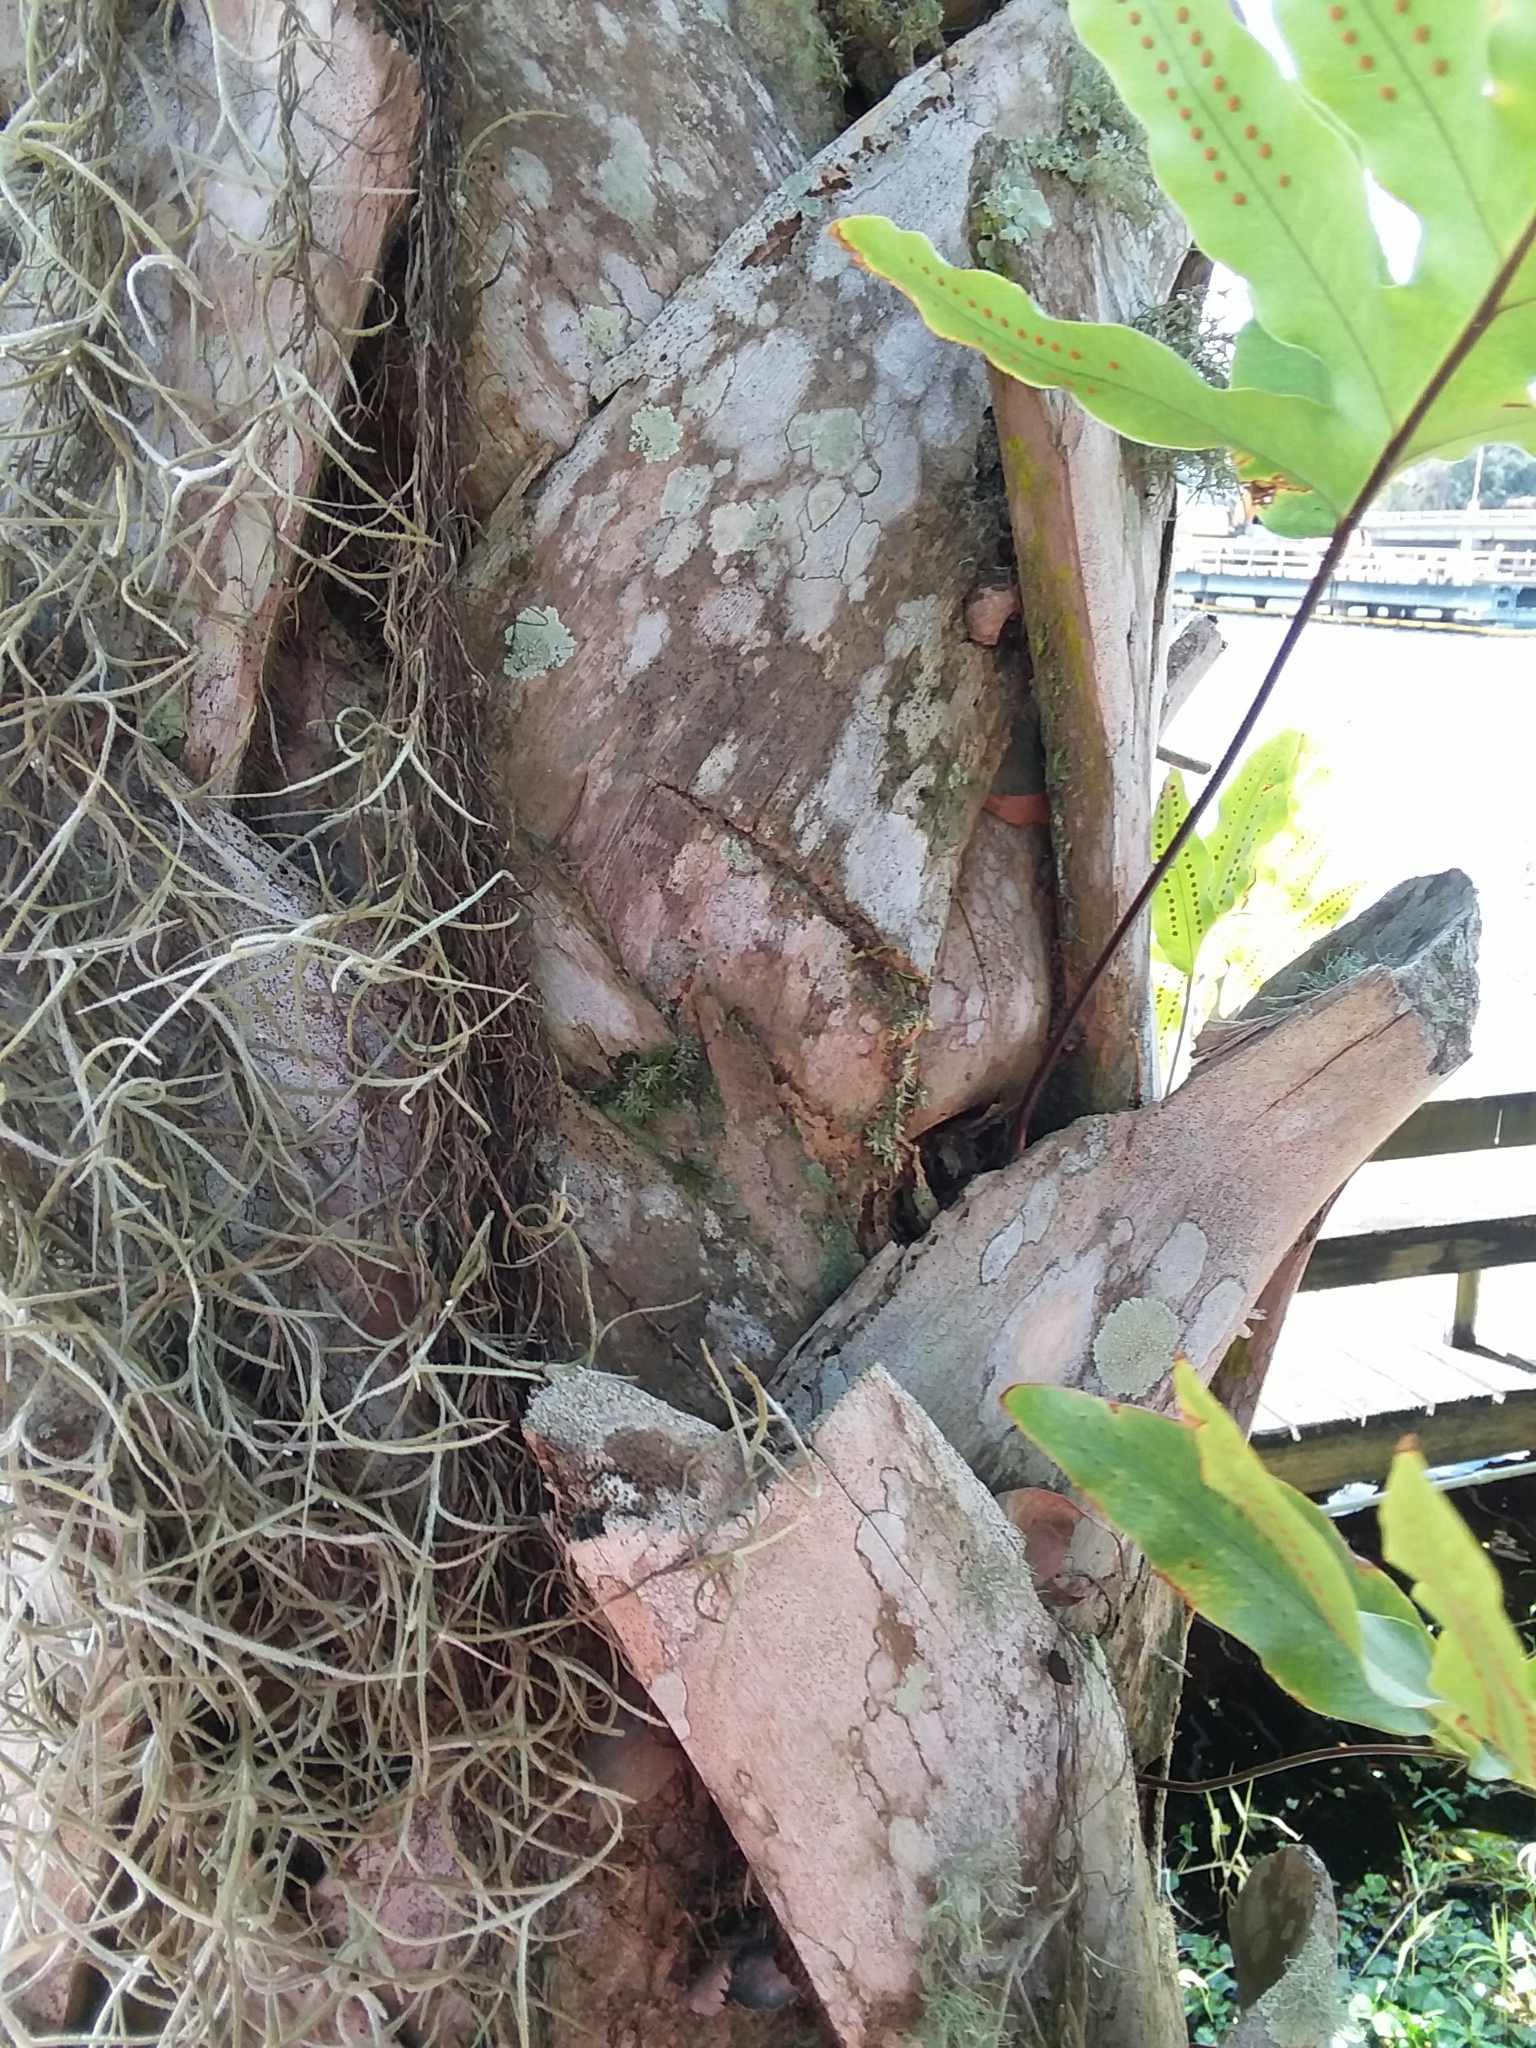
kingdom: Plantae
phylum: Tracheophyta
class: Polypodiopsida
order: Polypodiales
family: Polypodiaceae
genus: Phlebodium
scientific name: Phlebodium aureum
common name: Gold-foot fern
